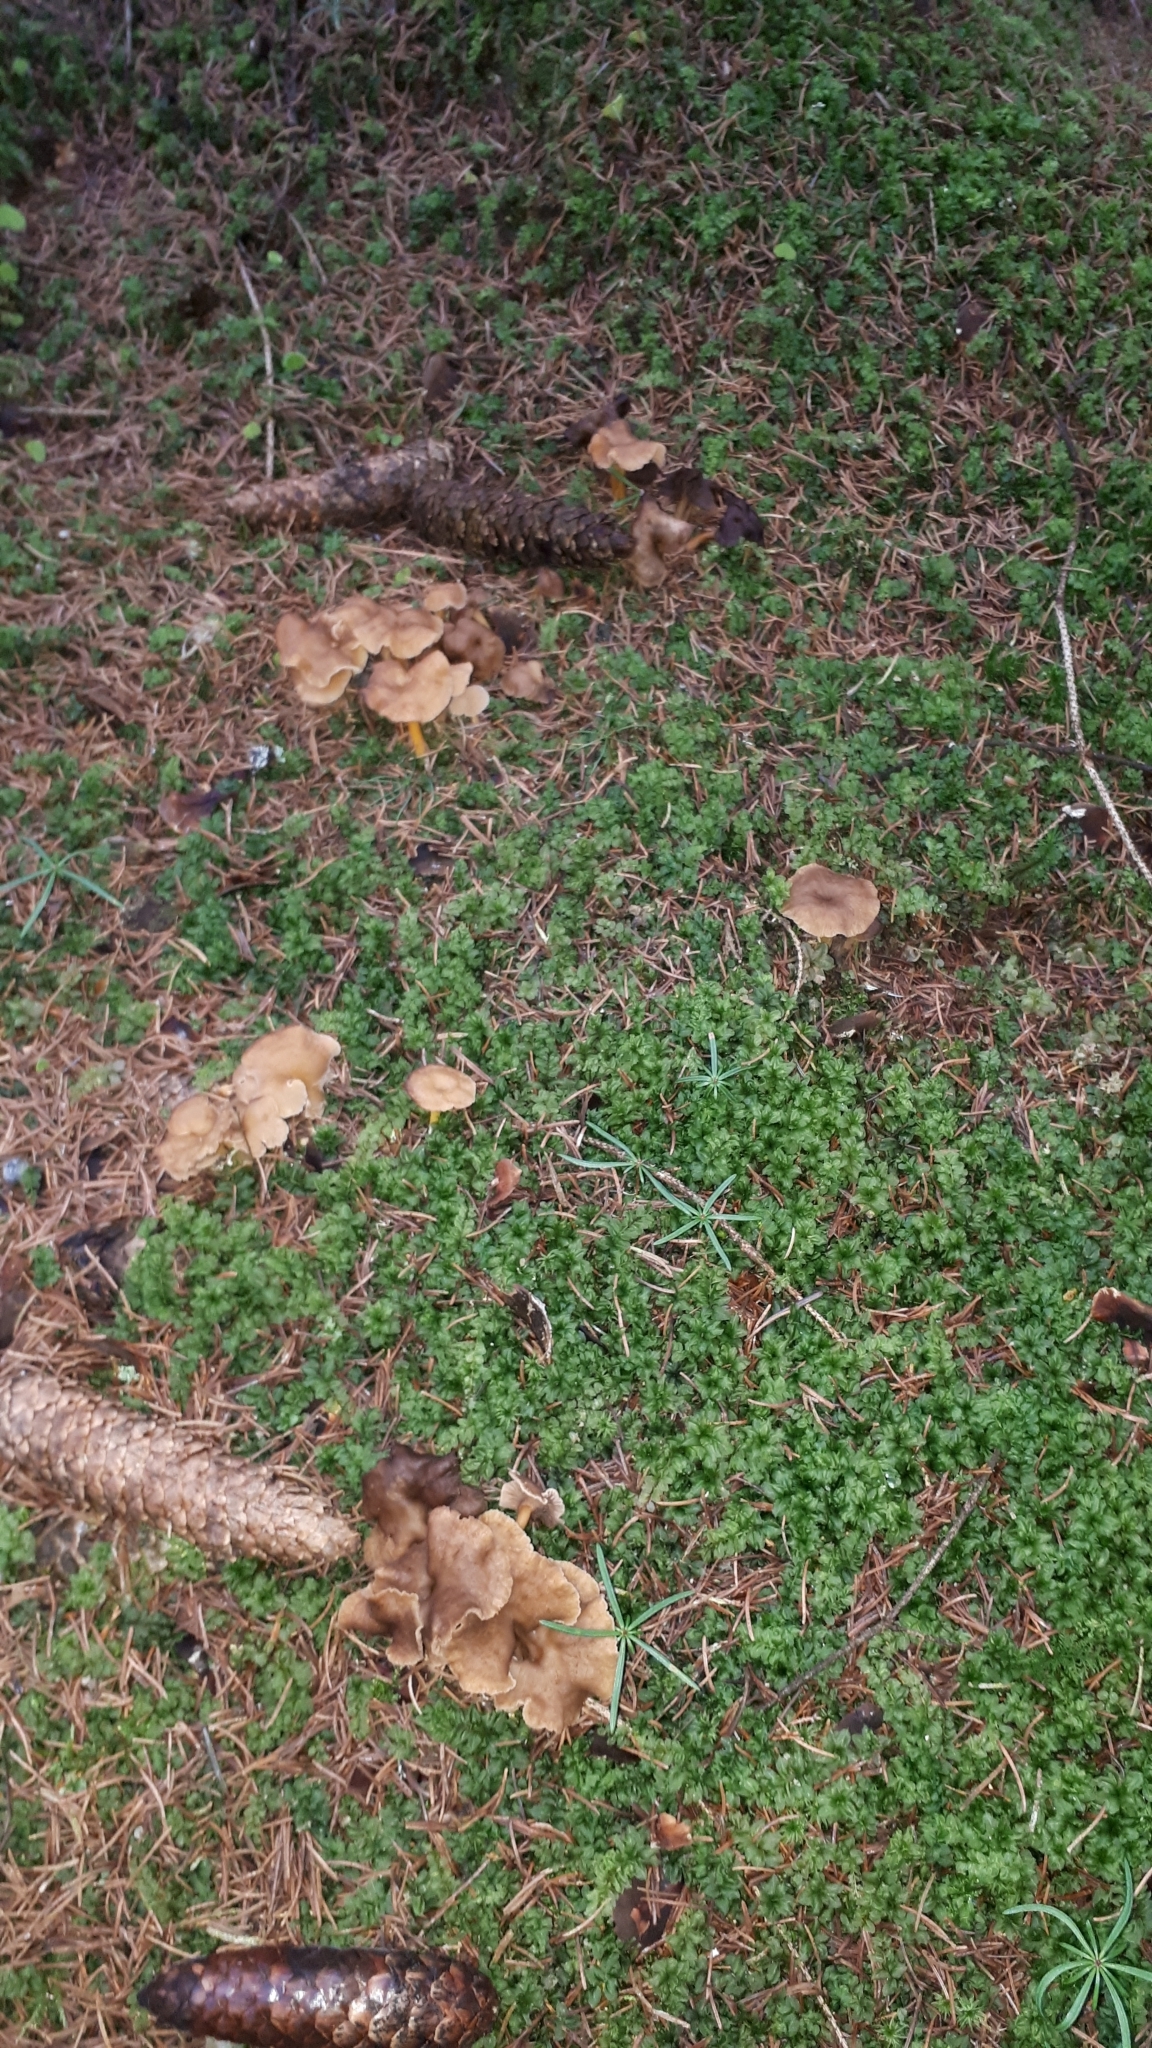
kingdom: Fungi
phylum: Basidiomycota
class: Agaricomycetes
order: Cantharellales
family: Hydnaceae
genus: Craterellus
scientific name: Craterellus tubaeformis
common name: Yellowfoot
